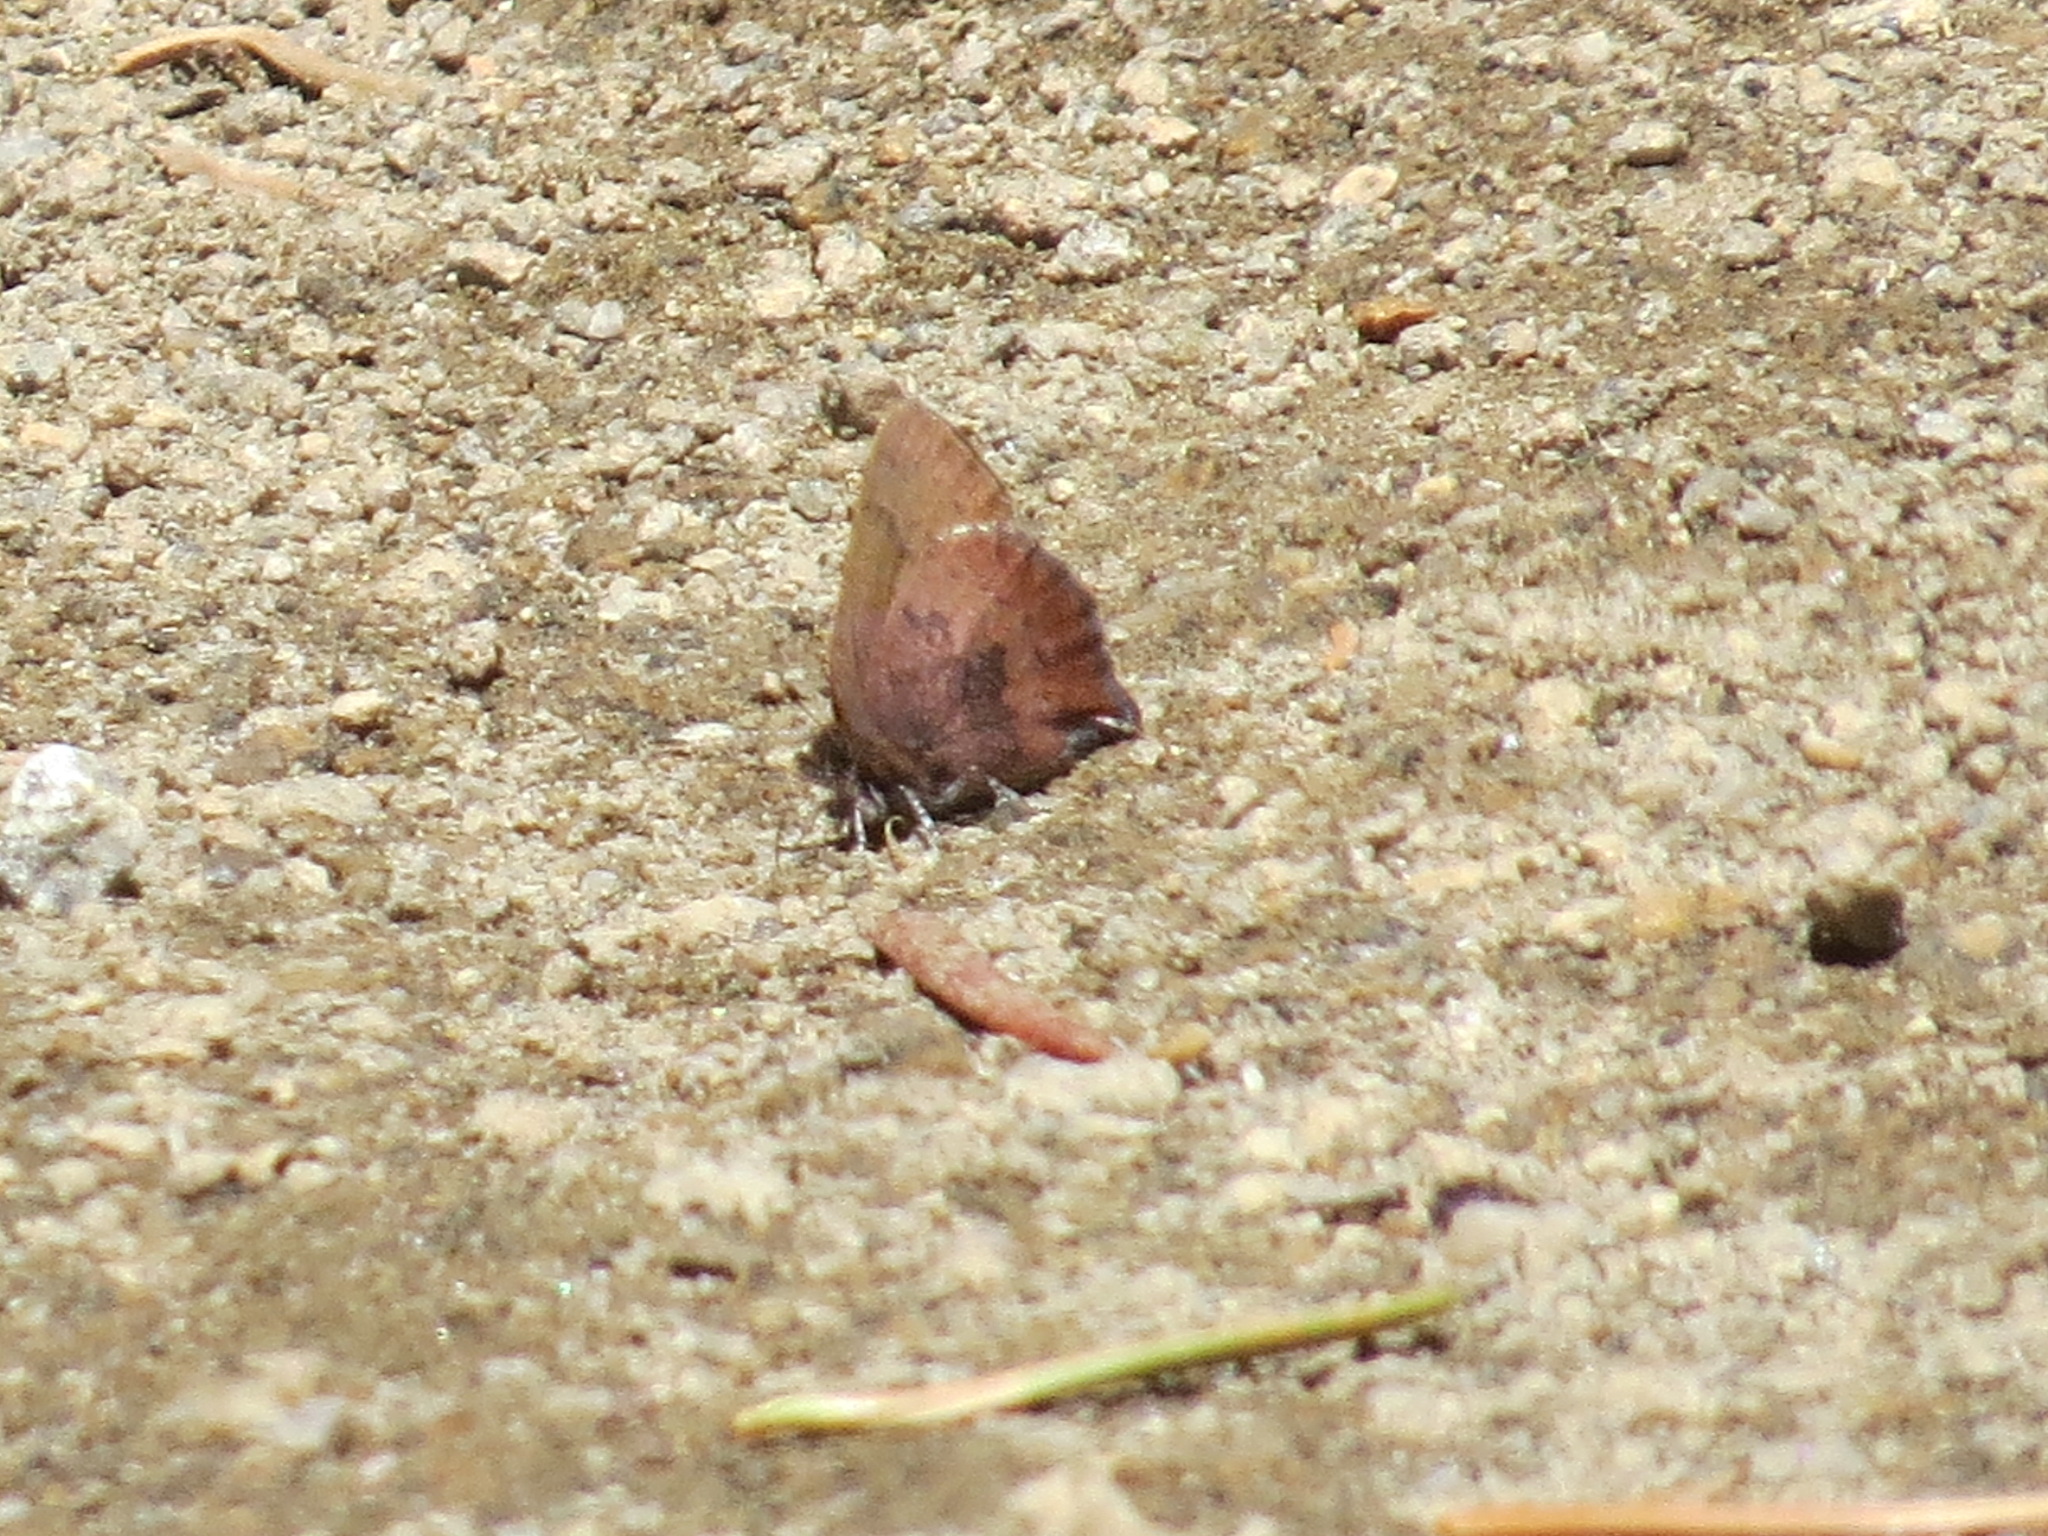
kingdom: Animalia
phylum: Arthropoda
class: Insecta
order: Lepidoptera
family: Lycaenidae
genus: Incisalia
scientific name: Incisalia irioides
